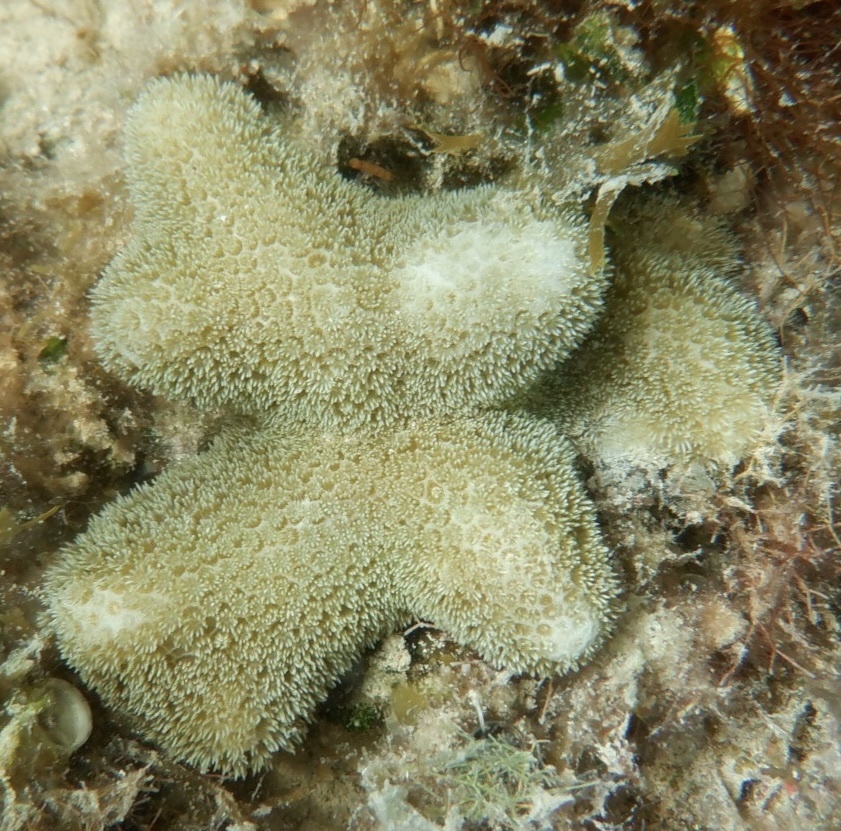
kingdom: Animalia
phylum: Cnidaria
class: Anthozoa
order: Scleractinia
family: Poritidae
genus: Porites
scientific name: Porites porites
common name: Finger coral
